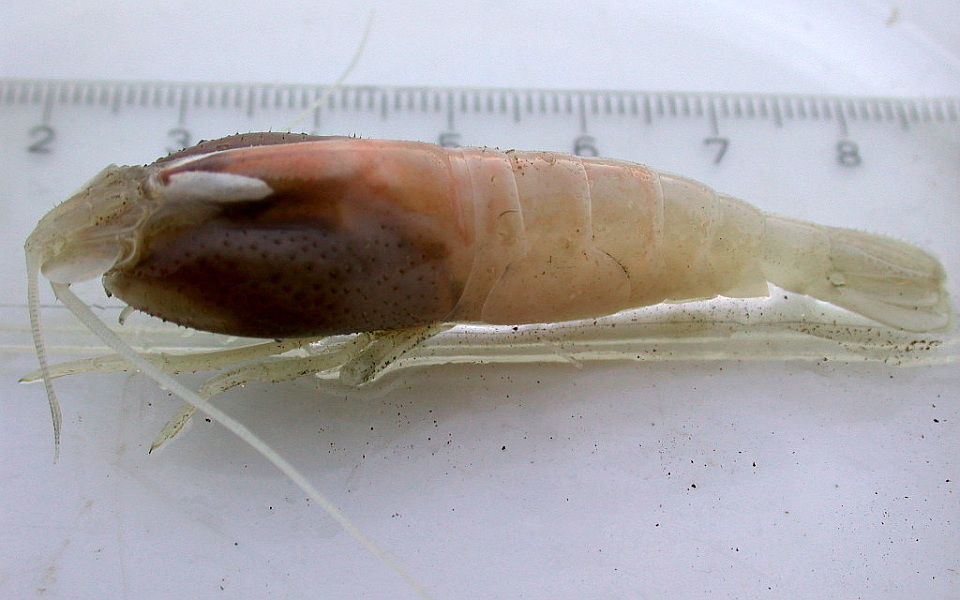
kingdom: Animalia
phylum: Arthropoda
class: Malacostraca
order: Decapoda
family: Alvinocarididae
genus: Rimicaris
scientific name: Rimicaris exoculata
